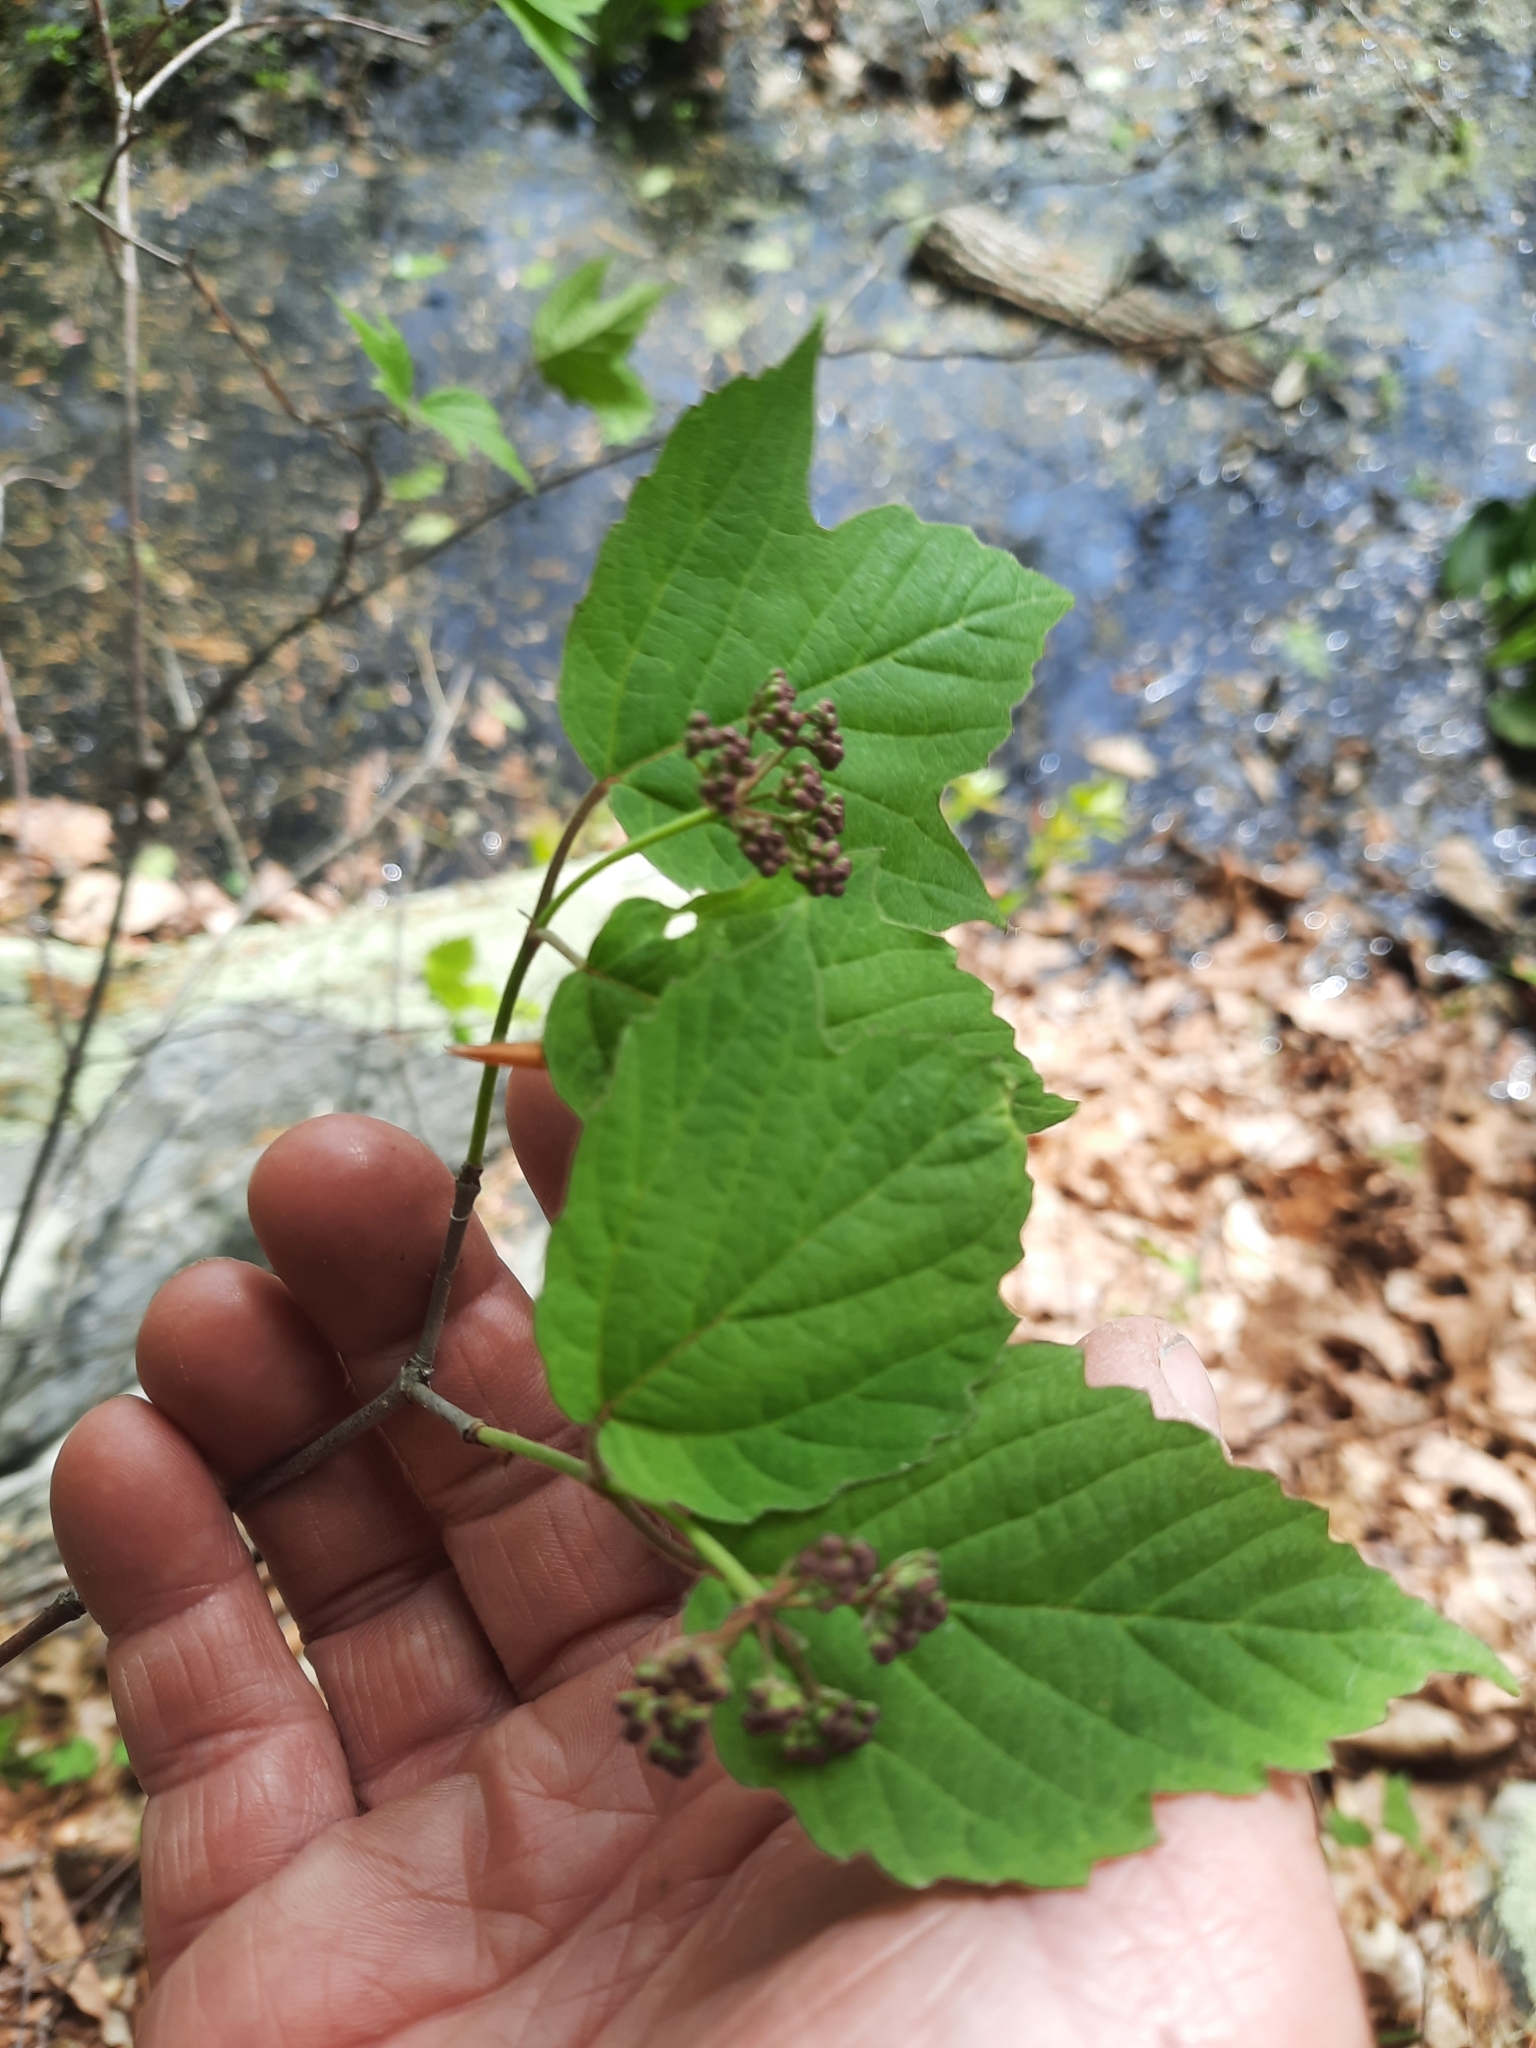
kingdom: Plantae
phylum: Tracheophyta
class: Magnoliopsida
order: Dipsacales
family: Viburnaceae
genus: Viburnum
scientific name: Viburnum acerifolium
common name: Dockmackie
